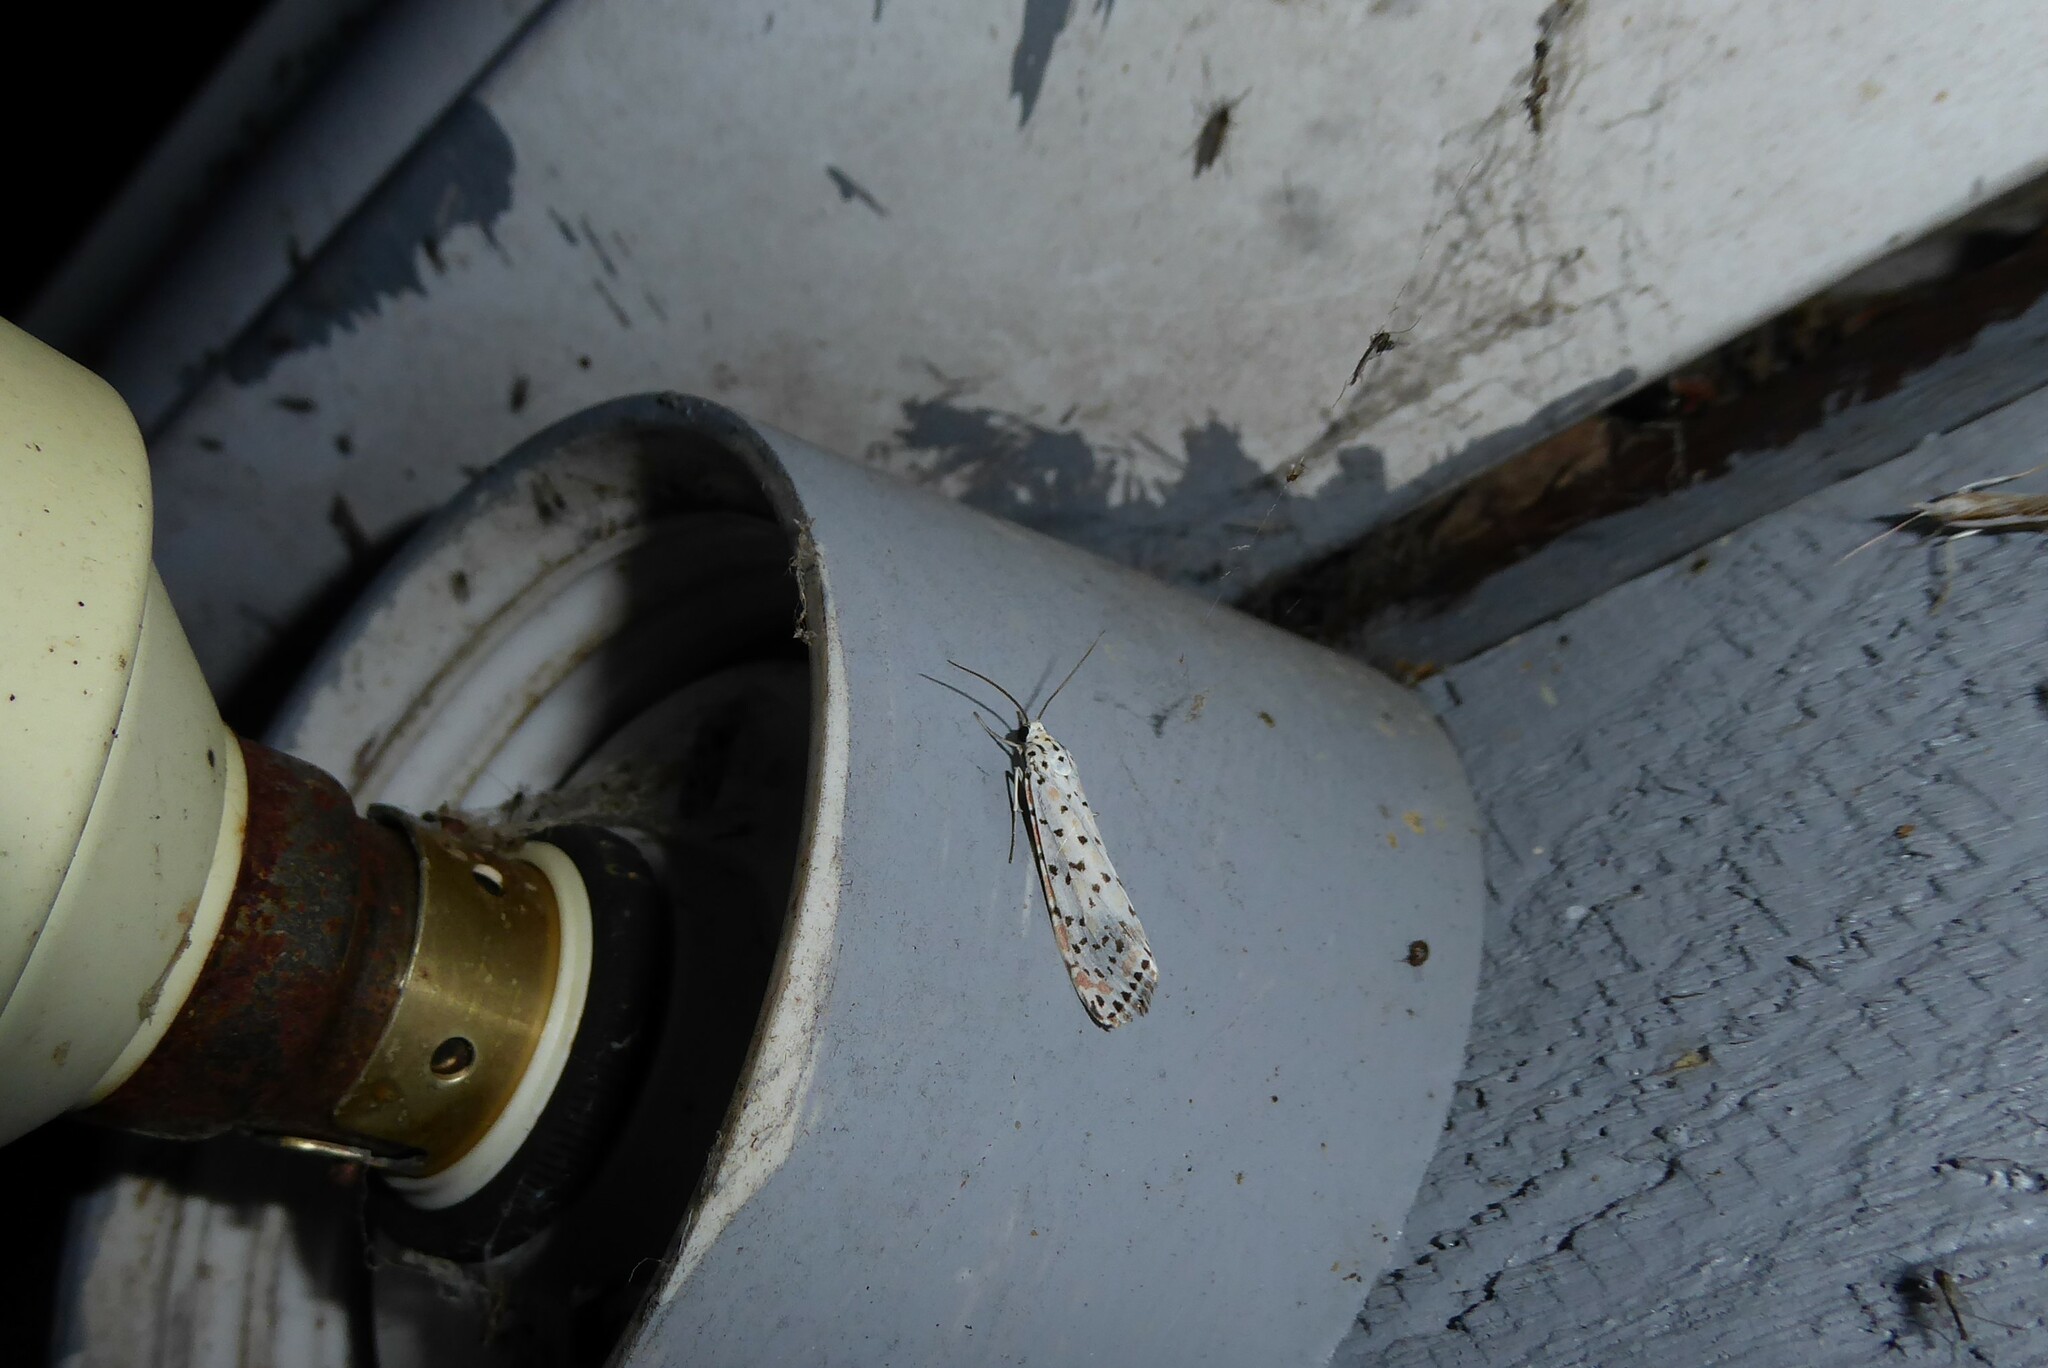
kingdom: Animalia
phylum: Arthropoda
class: Insecta
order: Lepidoptera
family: Erebidae
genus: Utetheisa
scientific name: Utetheisa pulchelloides
